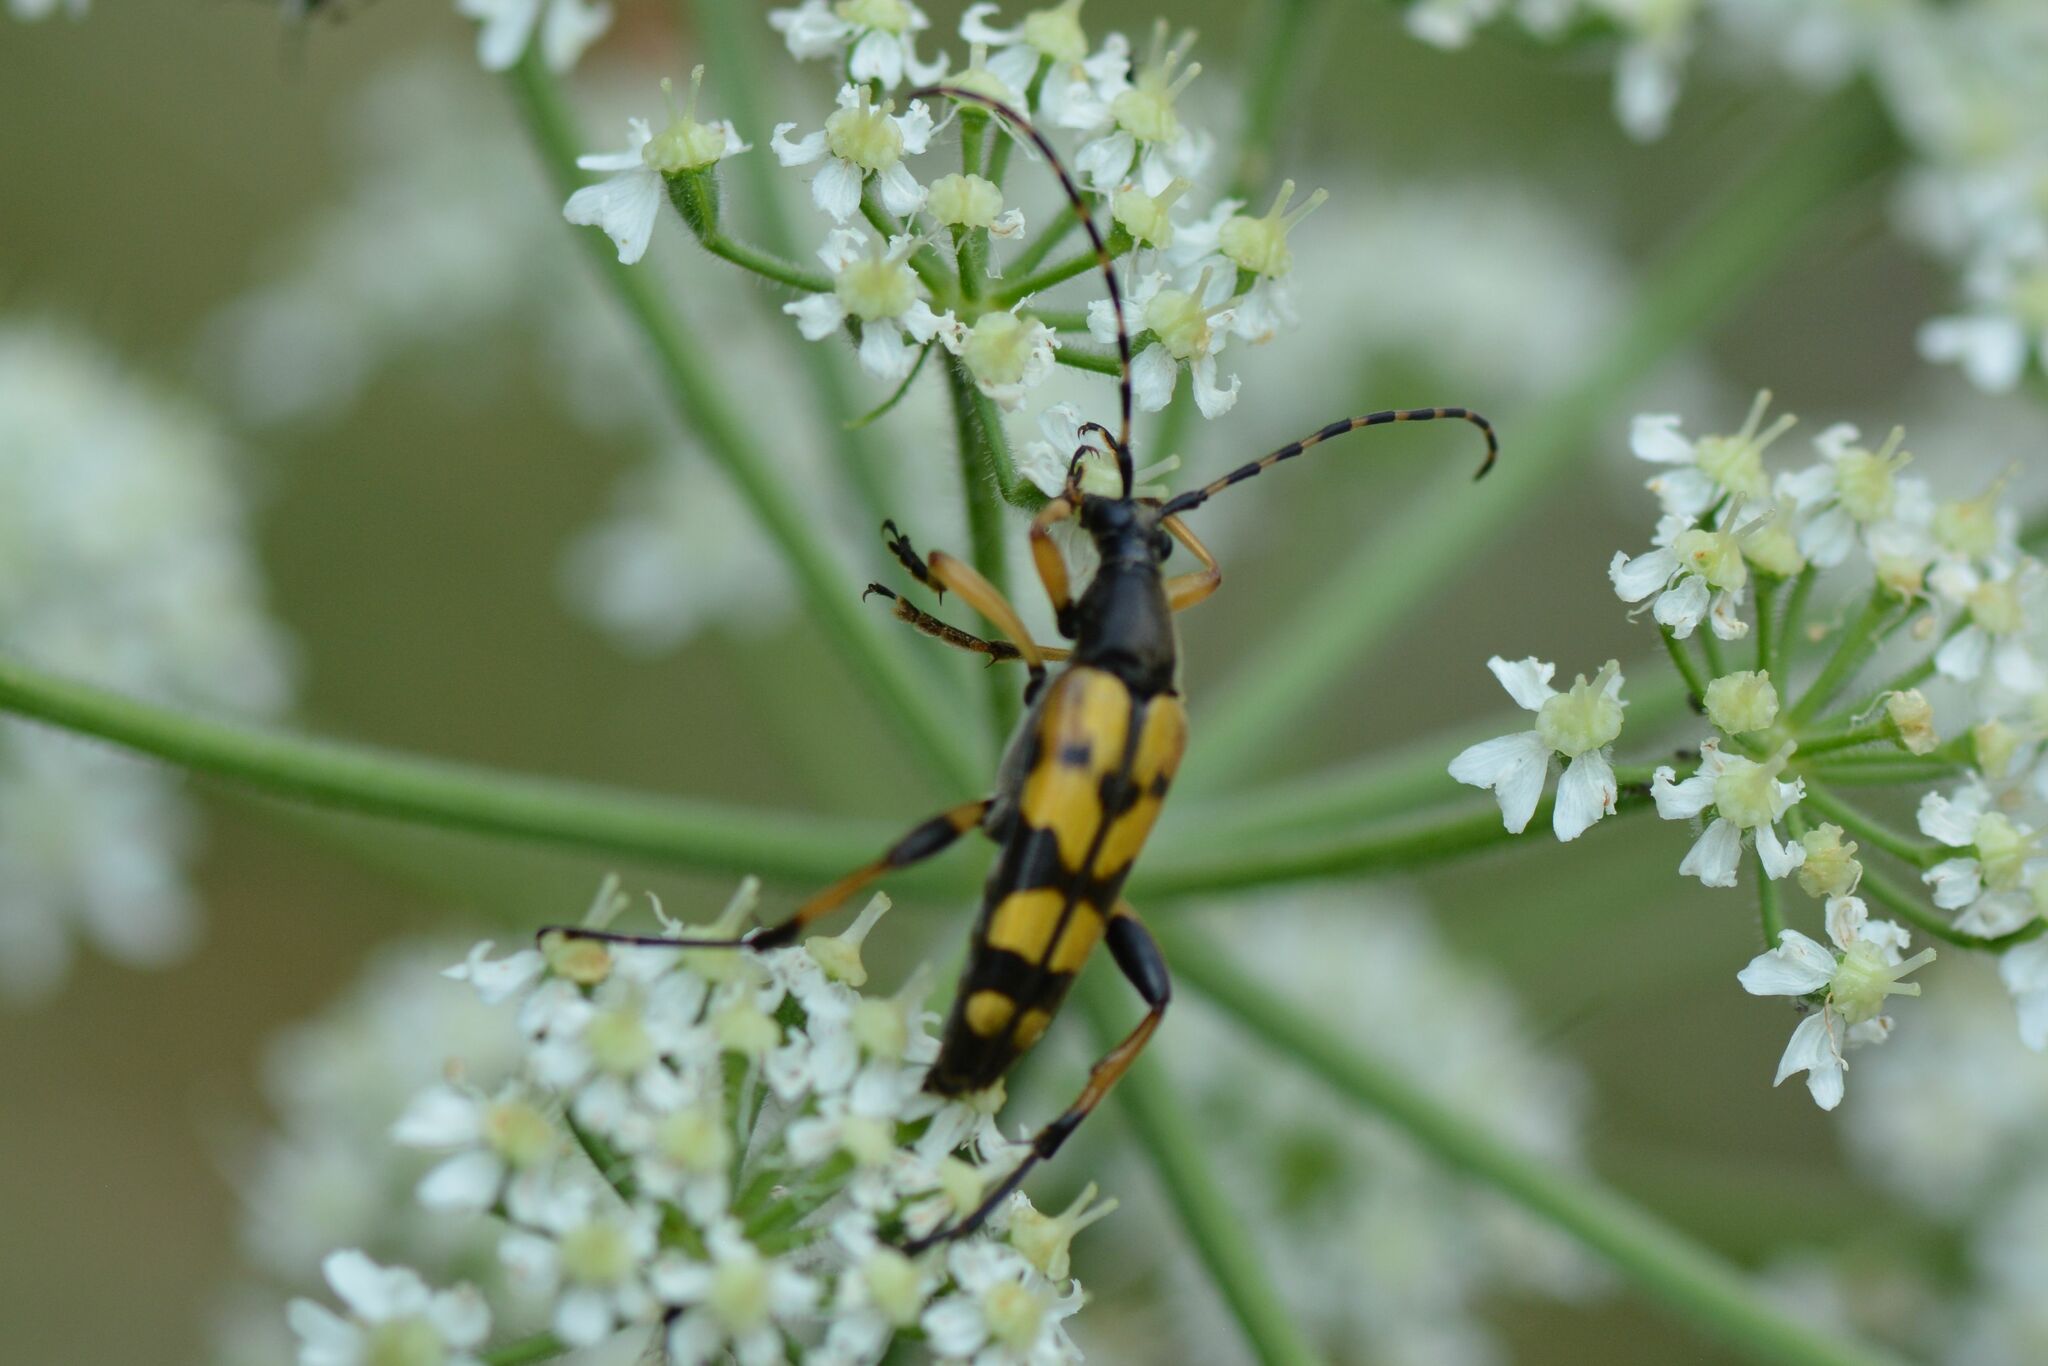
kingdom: Animalia
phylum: Arthropoda
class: Insecta
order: Coleoptera
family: Cerambycidae
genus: Rutpela
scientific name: Rutpela maculata
